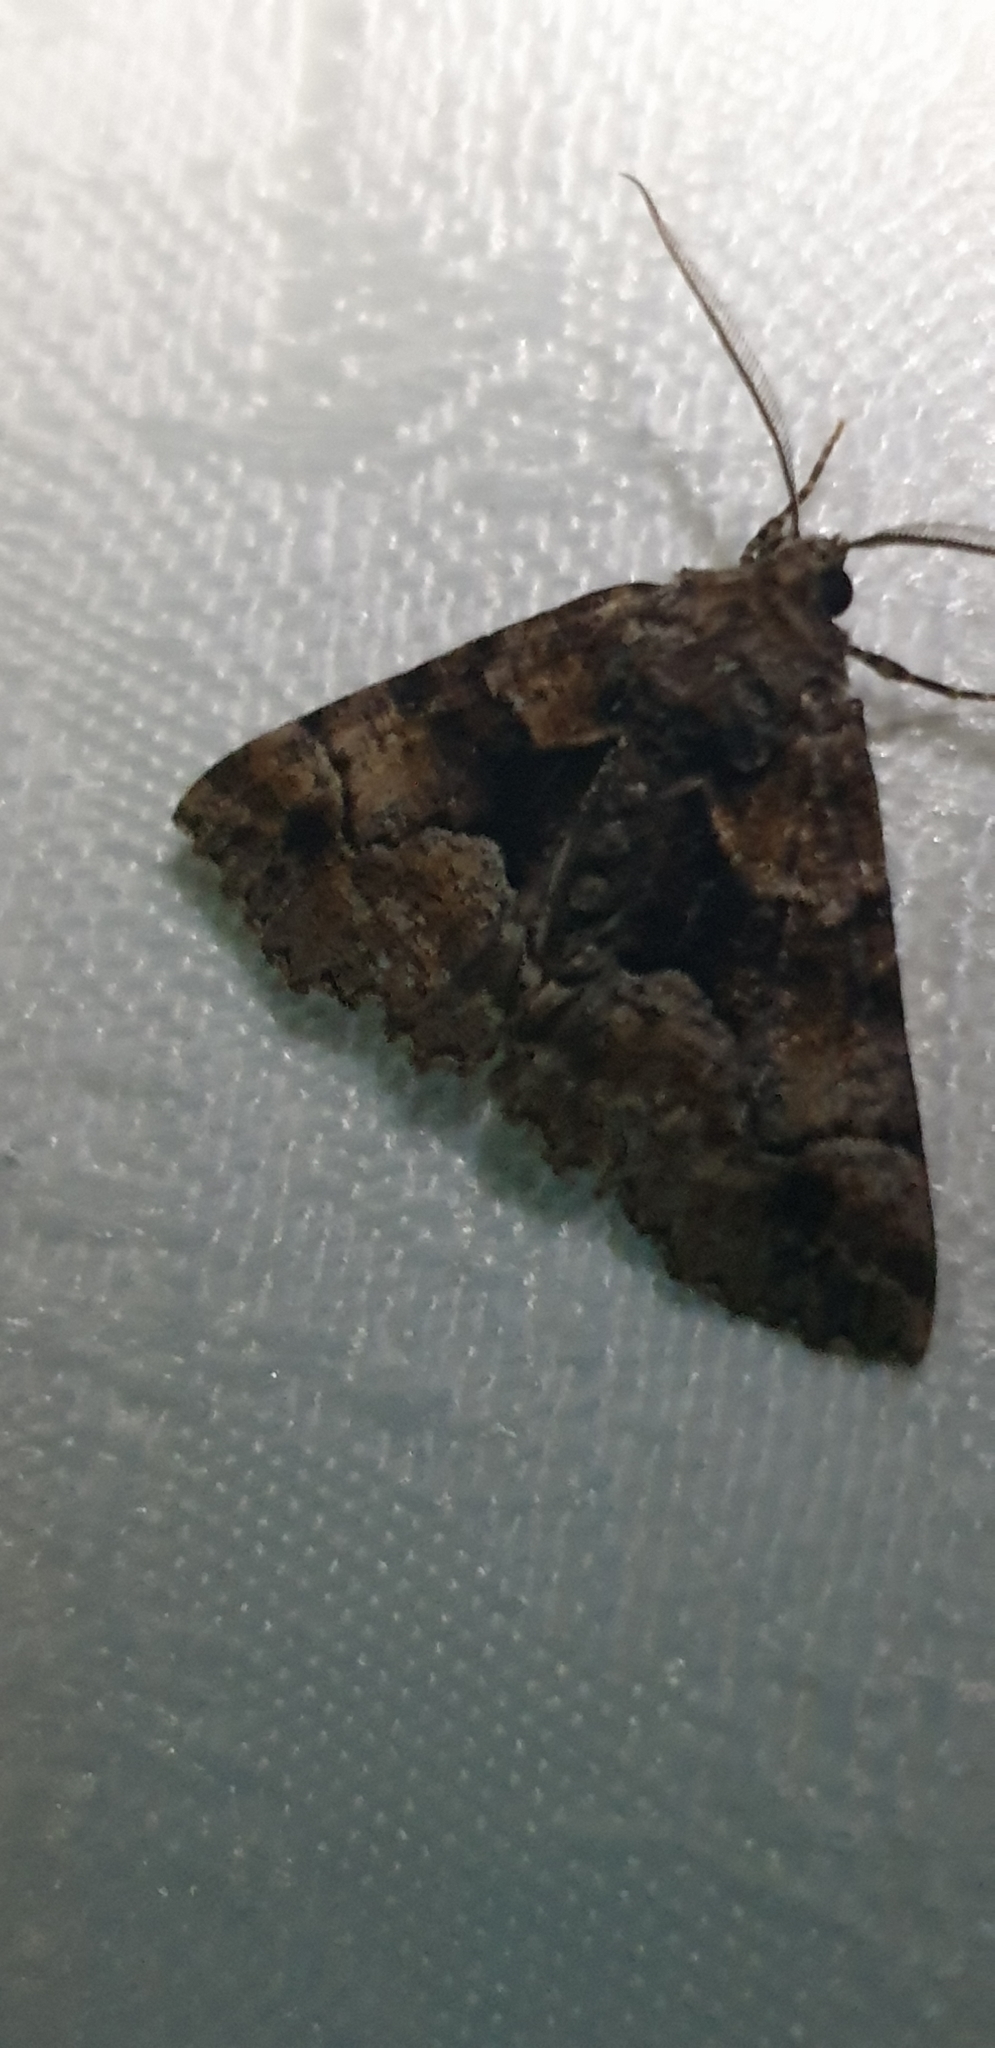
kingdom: Animalia
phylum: Arthropoda
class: Insecta
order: Lepidoptera
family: Geometridae
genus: Gastrina
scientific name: Gastrina cristaria
